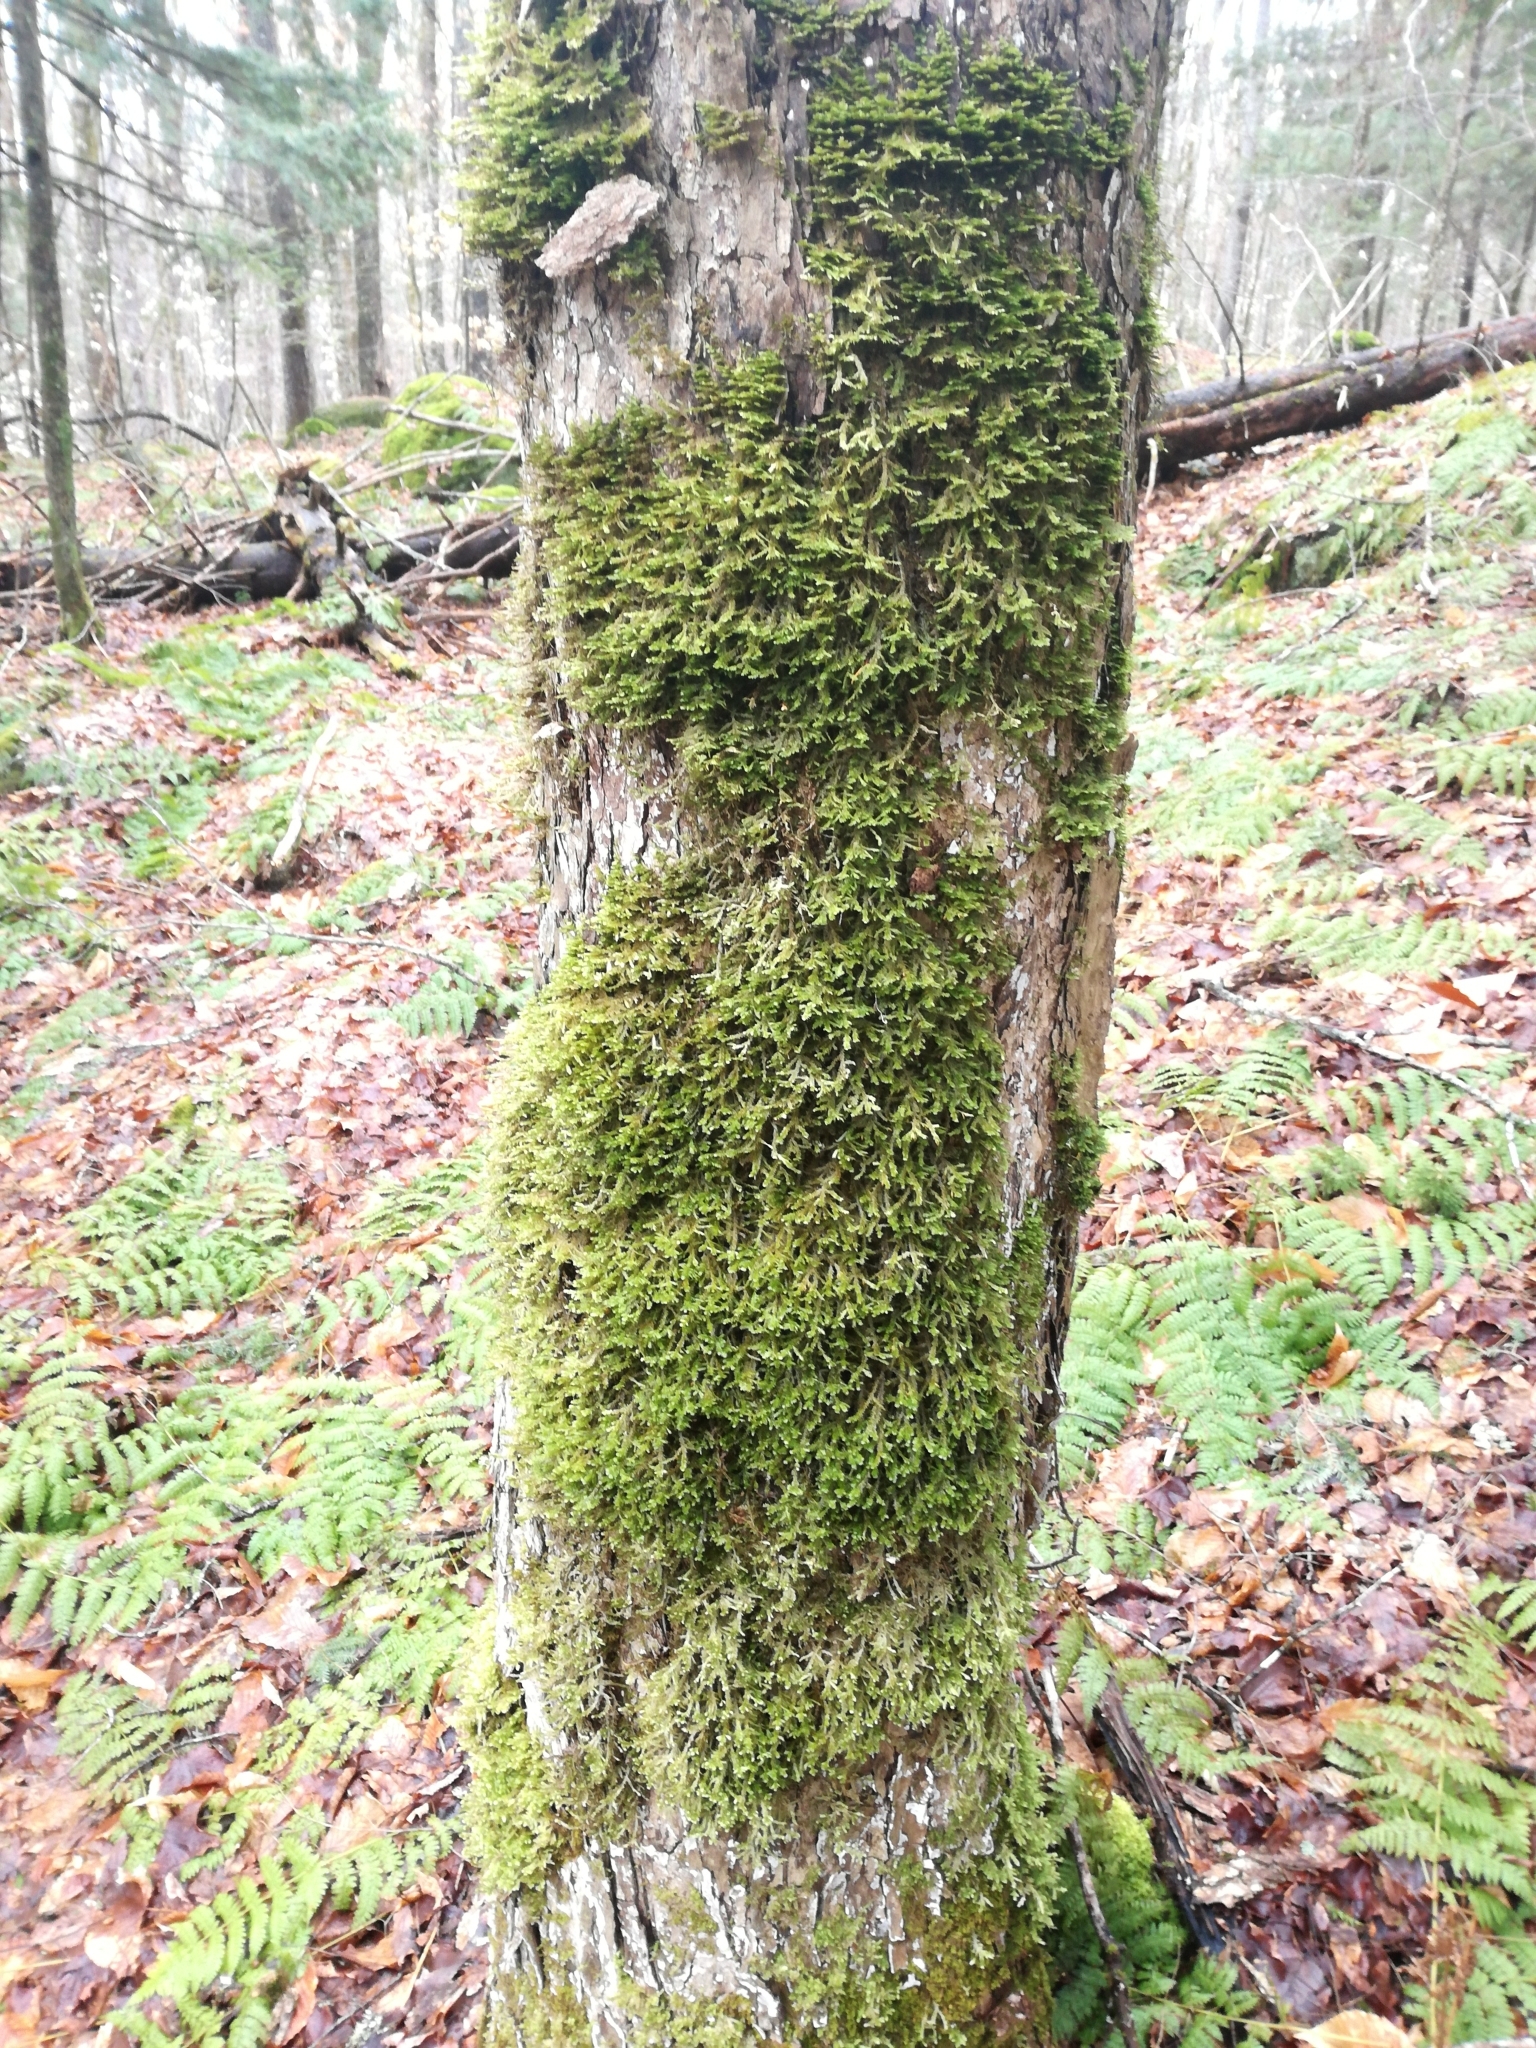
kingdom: Plantae
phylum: Bryophyta
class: Bryopsida
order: Hypnales
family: Neckeraceae
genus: Neckera
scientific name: Neckera pennata
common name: Feathery neckera
